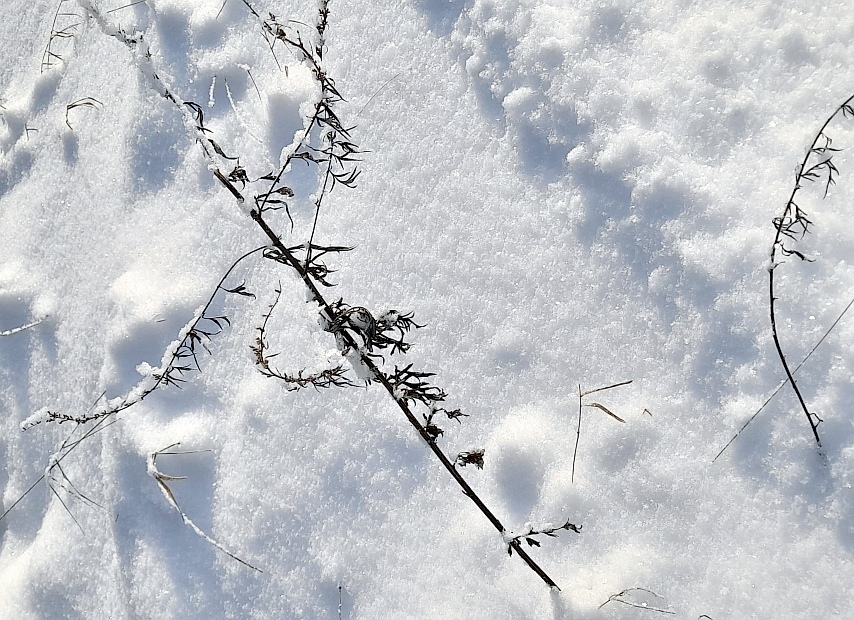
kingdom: Plantae
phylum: Tracheophyta
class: Magnoliopsida
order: Asterales
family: Asteraceae
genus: Artemisia
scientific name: Artemisia vulgaris
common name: Mugwort
